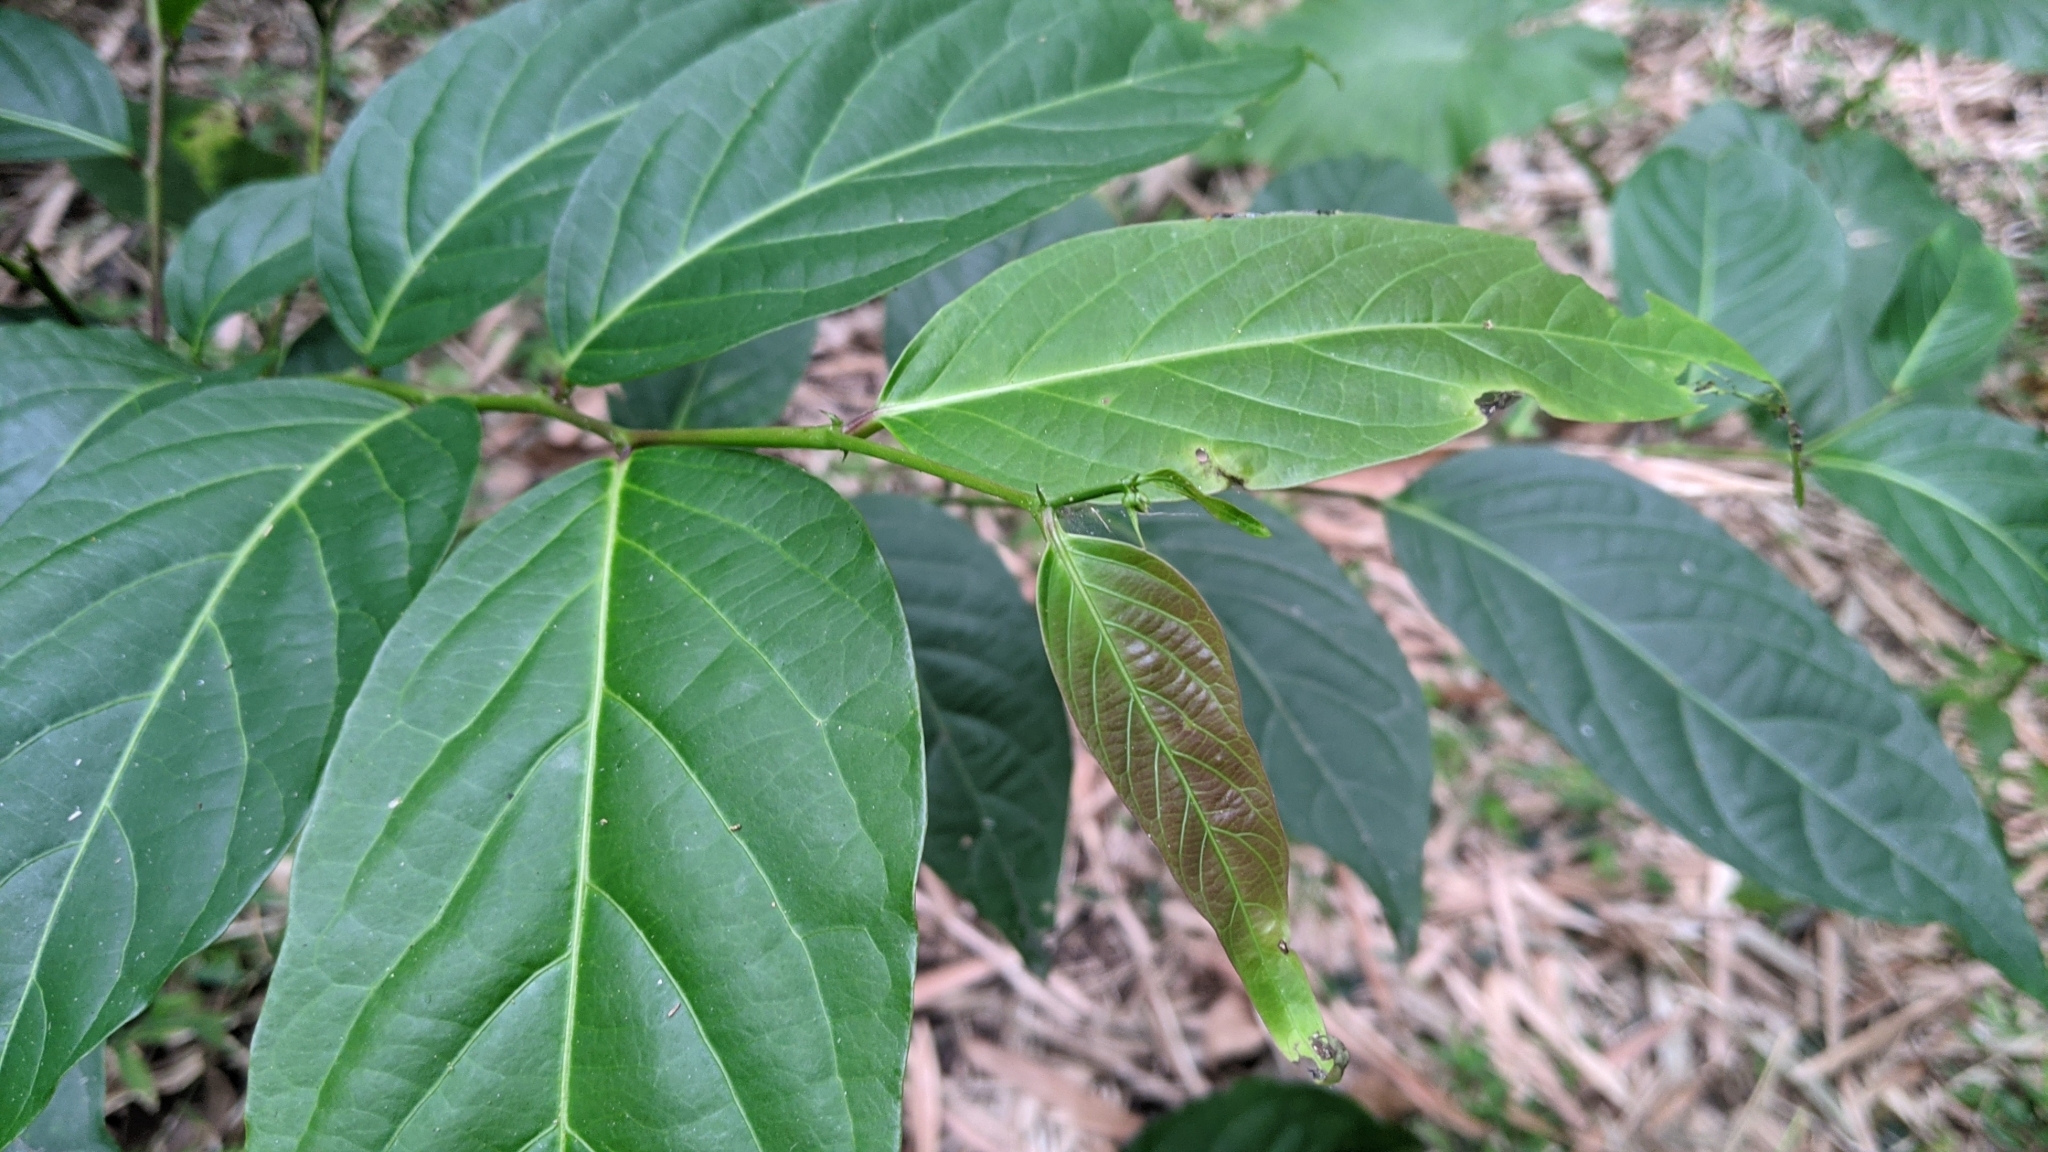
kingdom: Plantae
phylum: Tracheophyta
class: Magnoliopsida
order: Malpighiales
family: Phyllanthaceae
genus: Glochidion
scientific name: Glochidion zeylanicum
